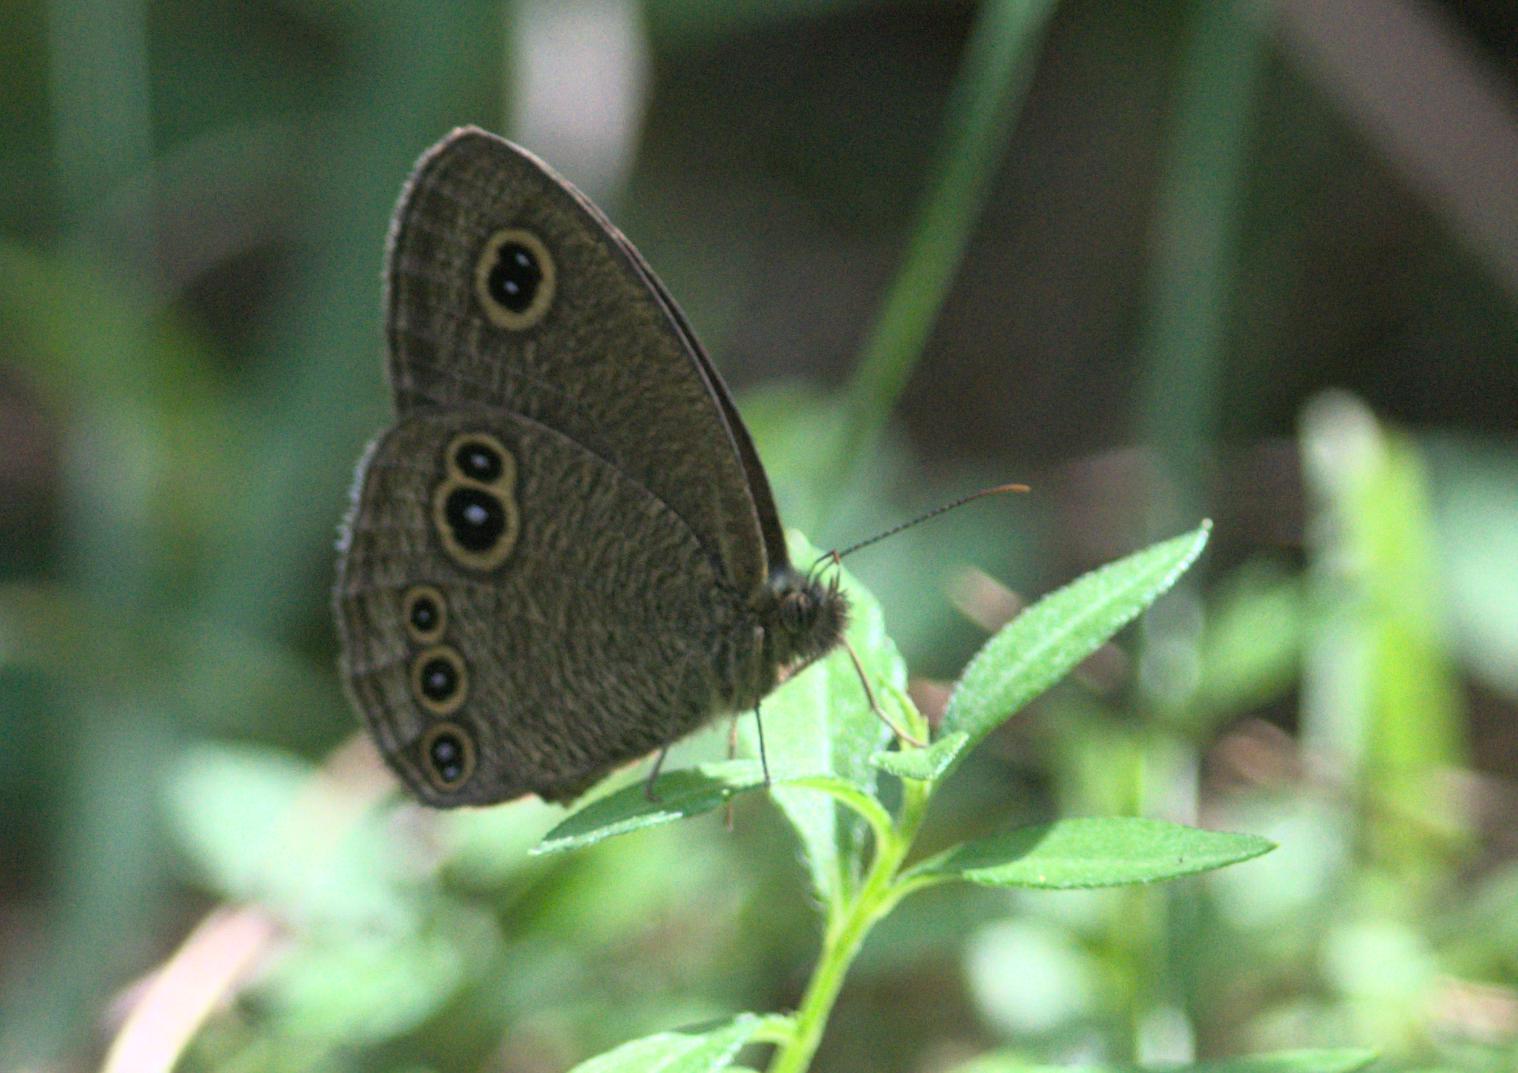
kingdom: Animalia
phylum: Arthropoda
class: Insecta
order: Lepidoptera
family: Nymphalidae
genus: Ypthima
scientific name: Ypthima nikaea
